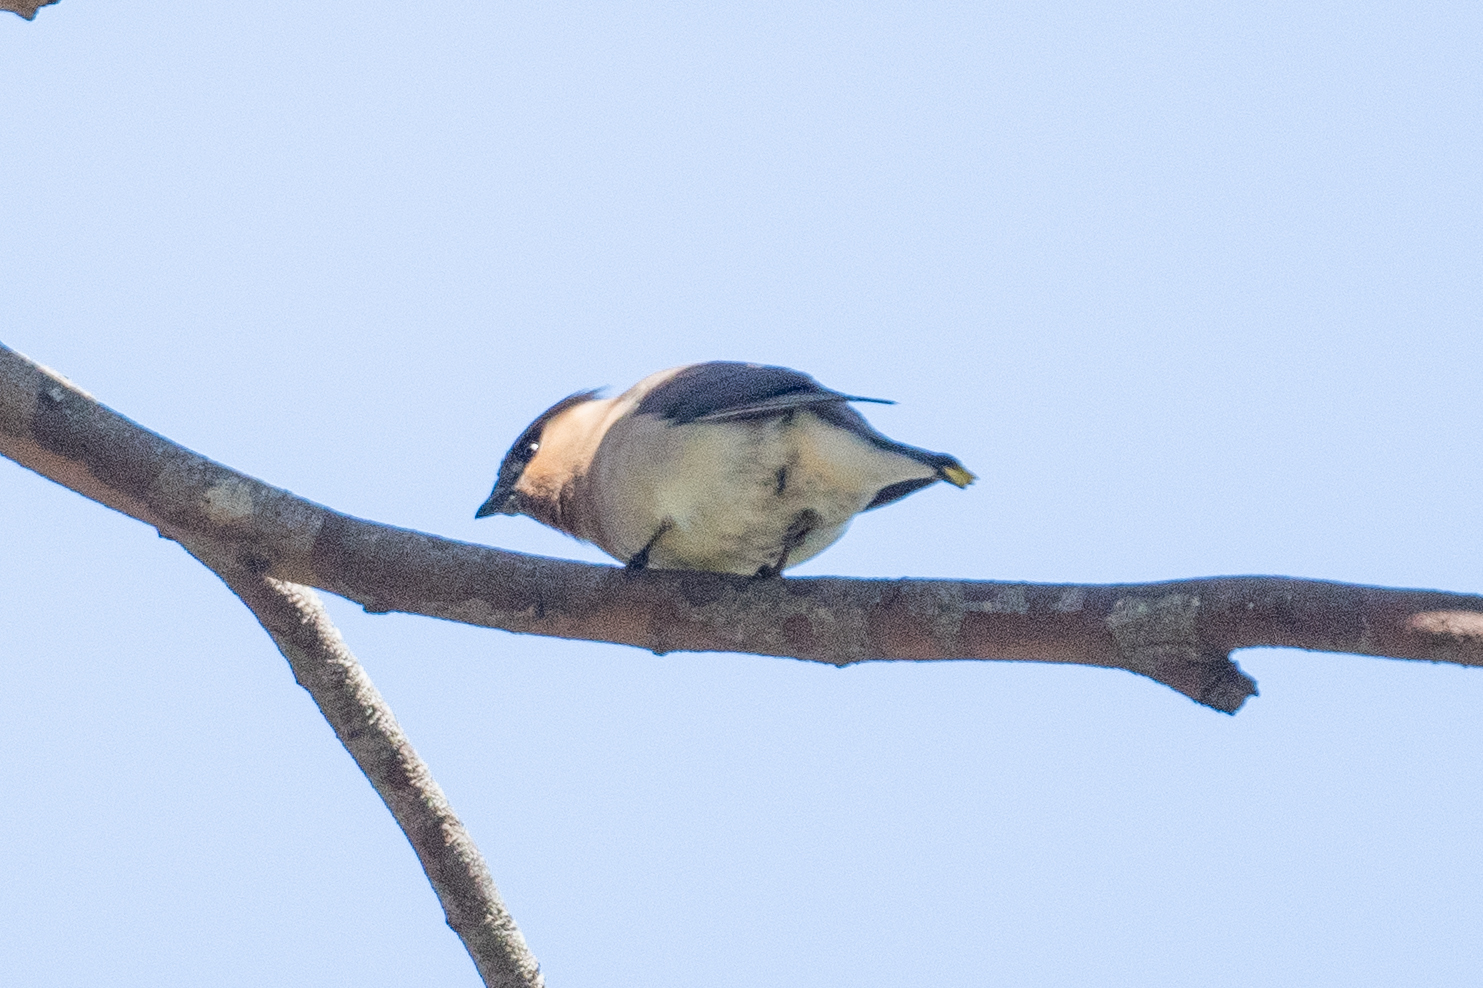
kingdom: Animalia
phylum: Chordata
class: Aves
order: Passeriformes
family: Bombycillidae
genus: Bombycilla
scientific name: Bombycilla cedrorum
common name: Cedar waxwing
